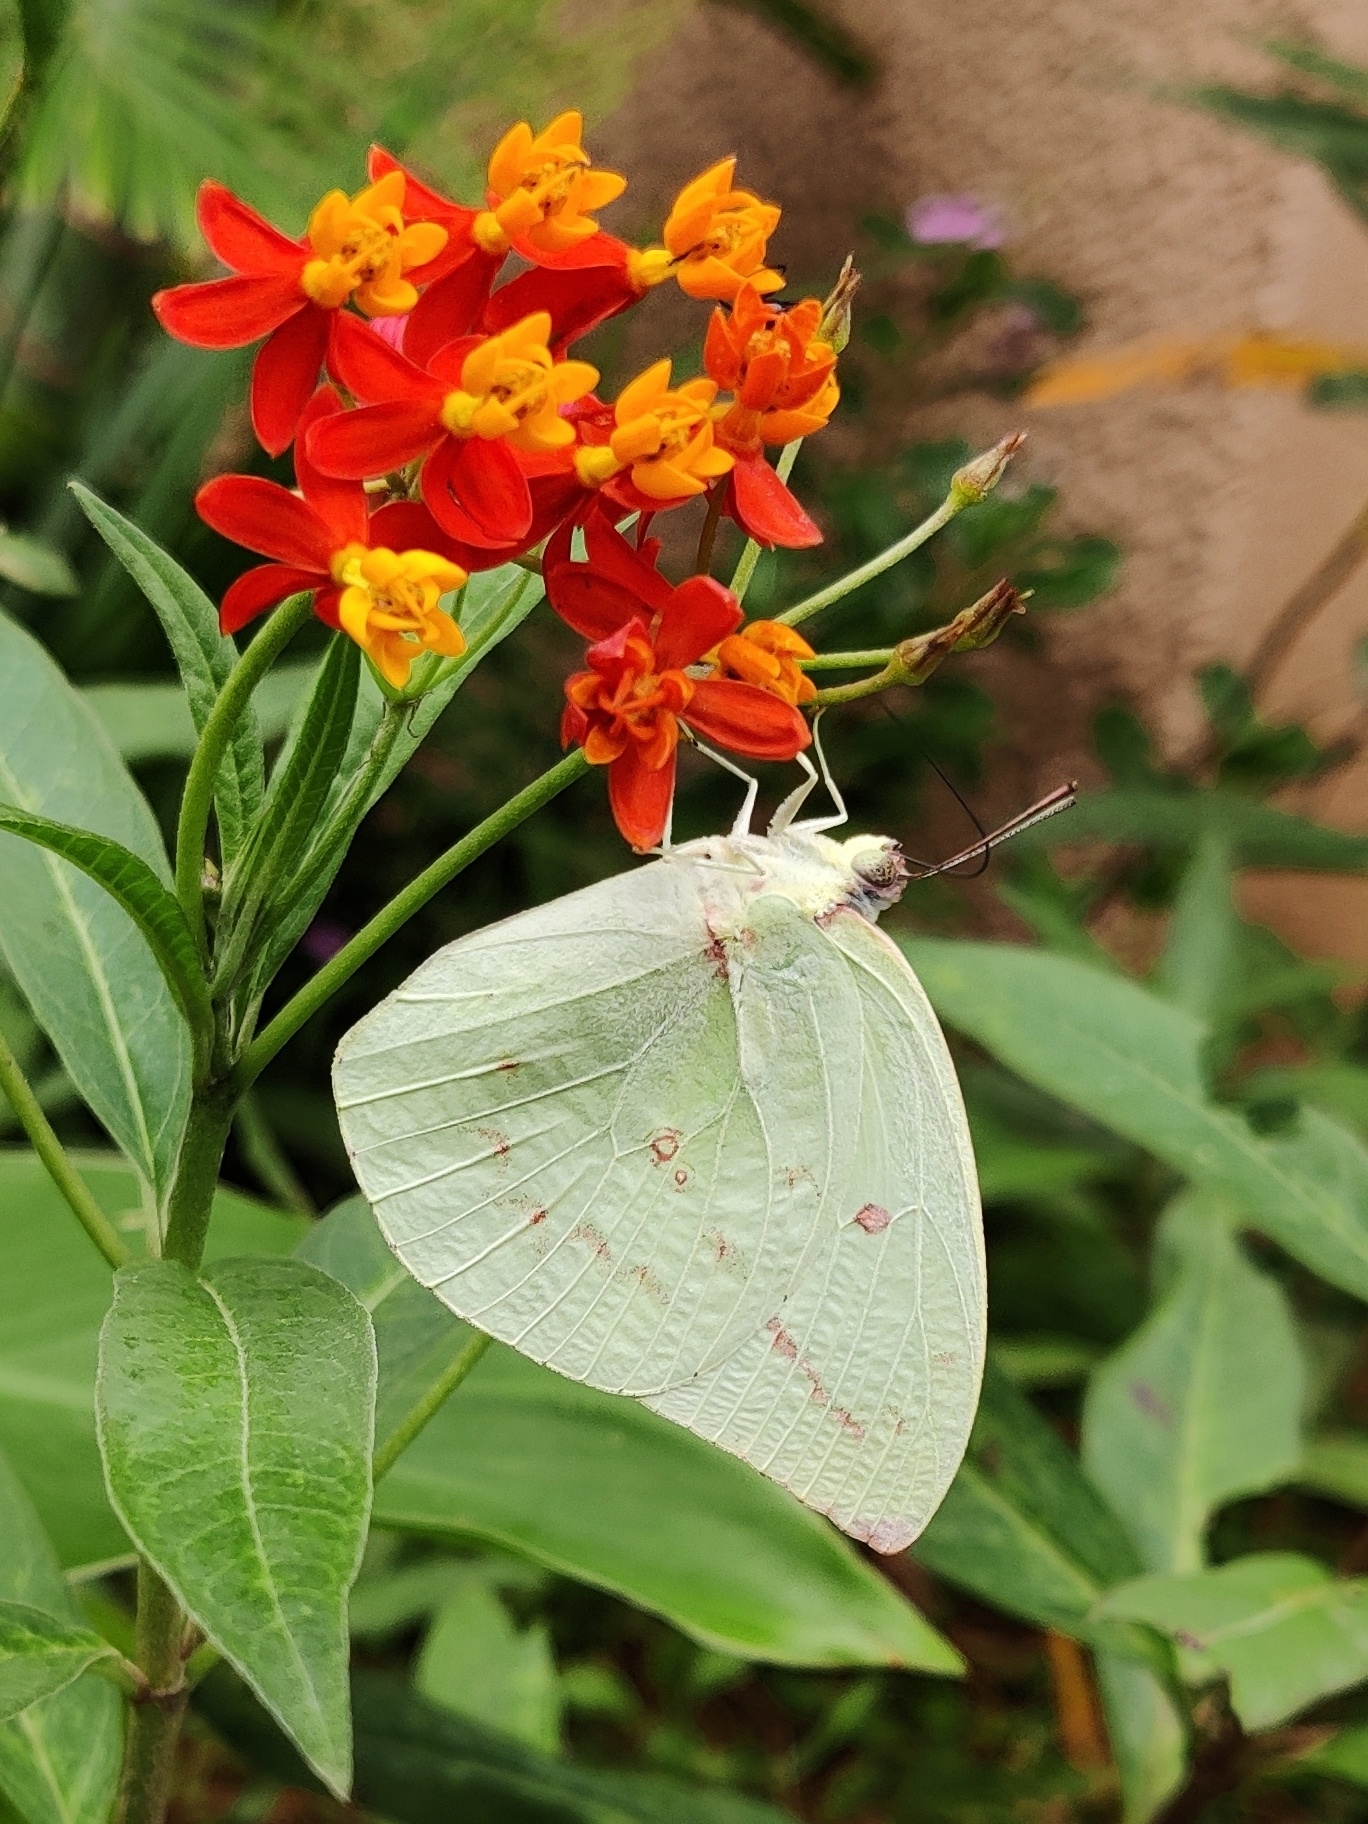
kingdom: Animalia
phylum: Arthropoda
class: Insecta
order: Lepidoptera
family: Pieridae
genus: Catopsilia
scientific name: Catopsilia pomona
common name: Common emigrant
